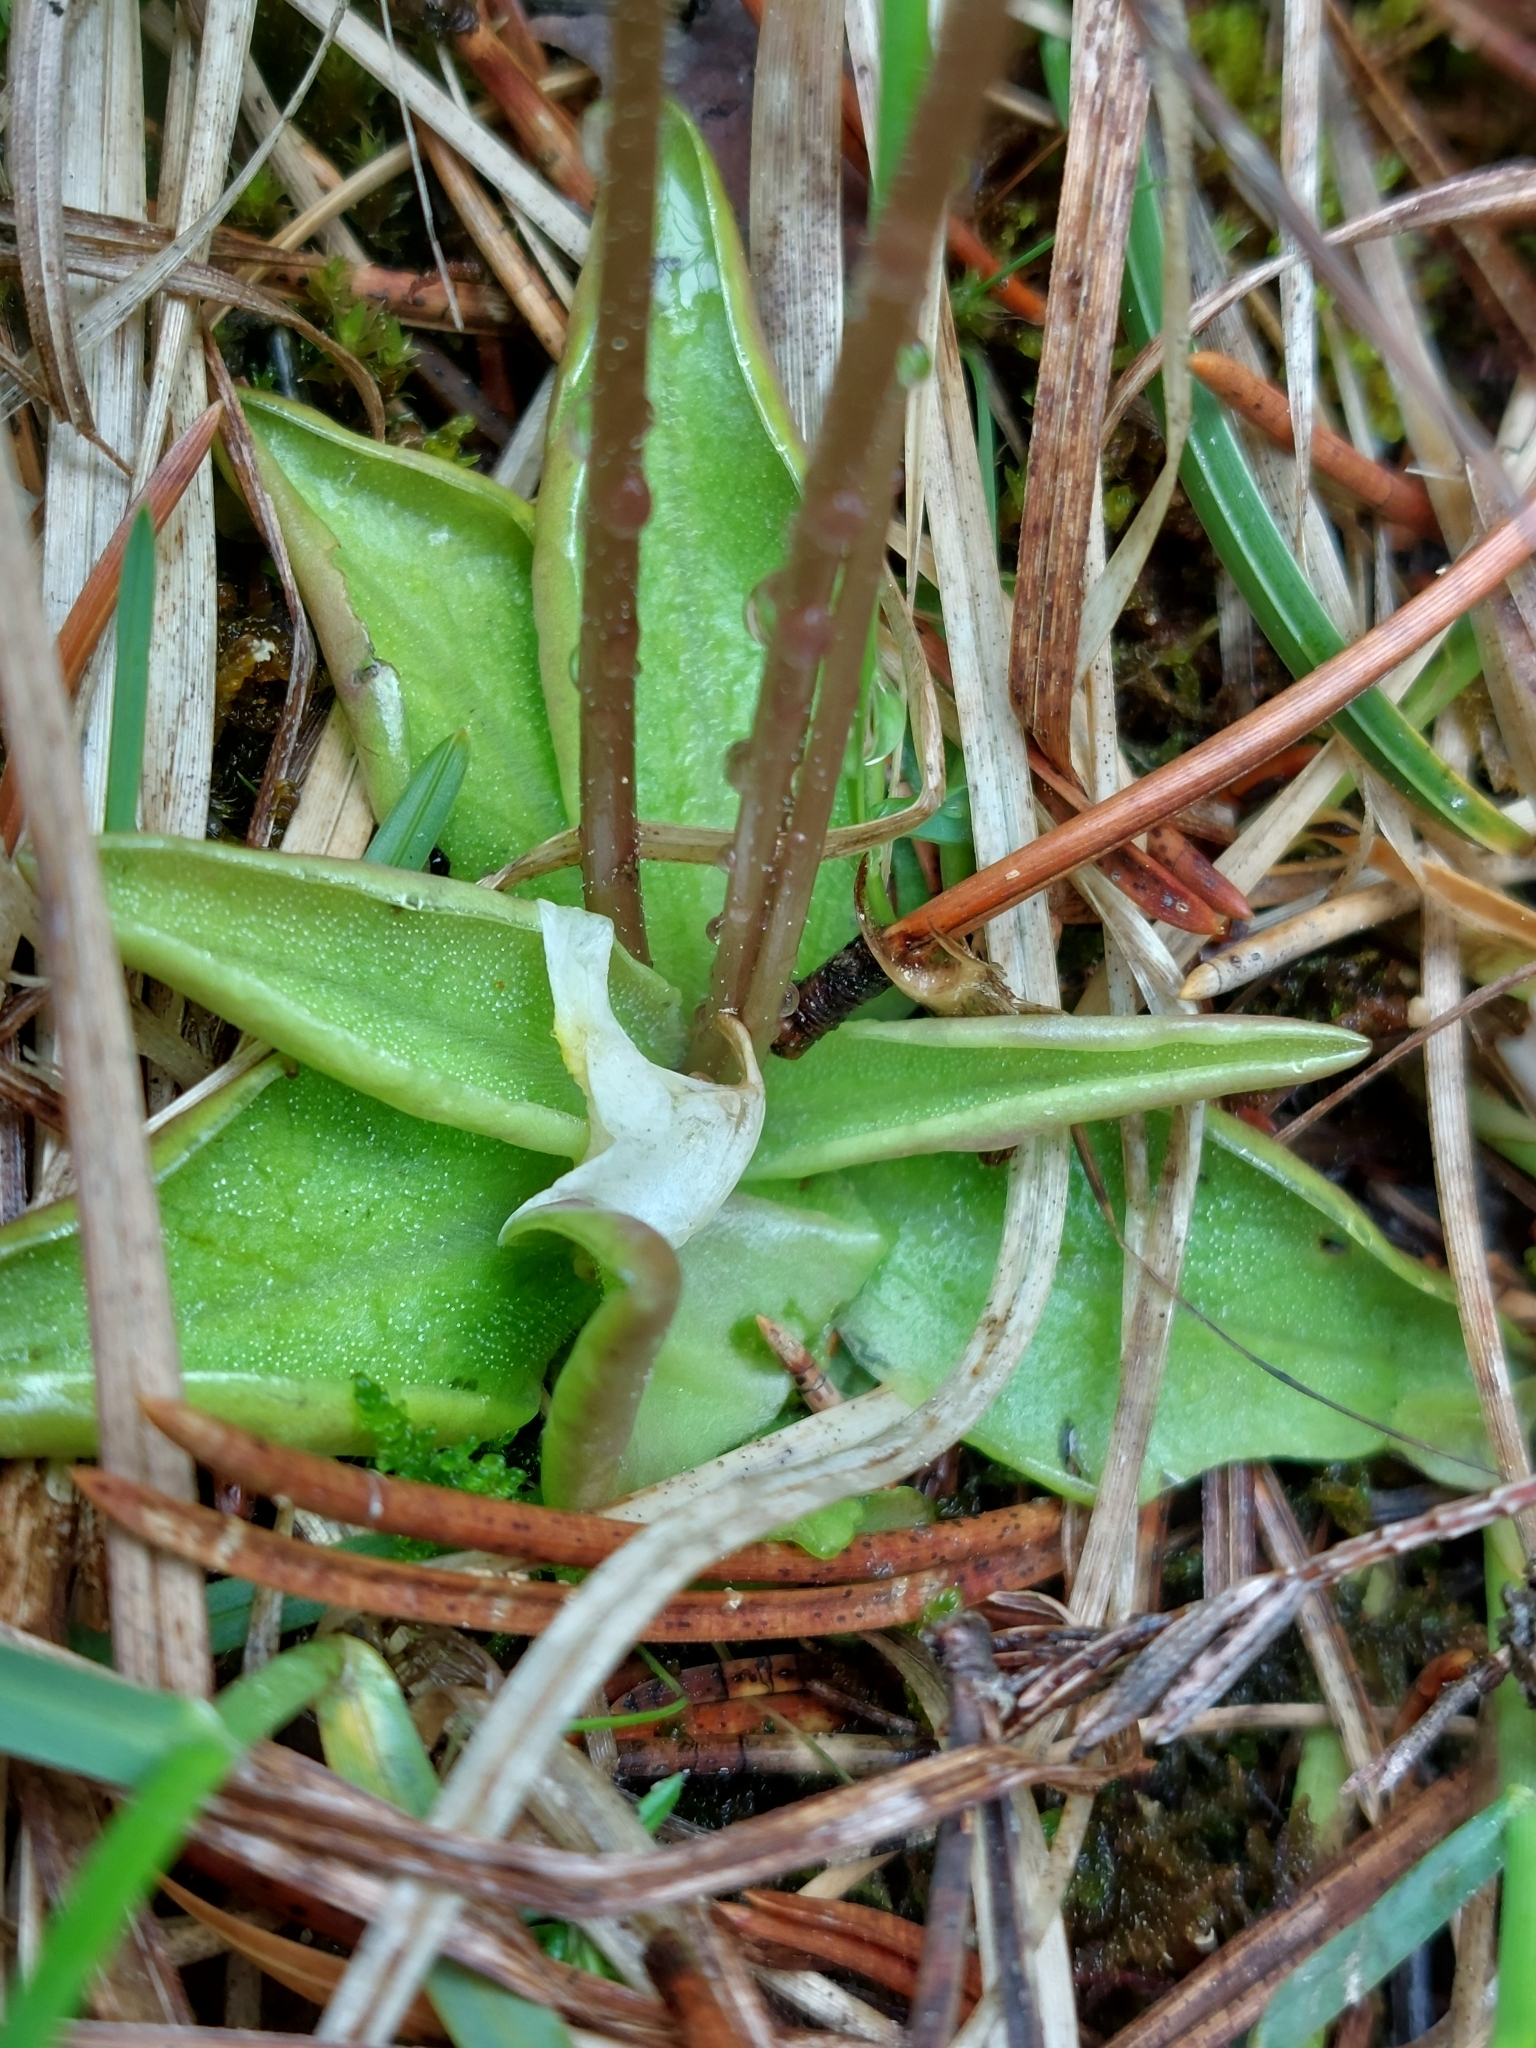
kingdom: Plantae
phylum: Tracheophyta
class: Magnoliopsida
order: Lamiales
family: Lentibulariaceae
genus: Pinguicula
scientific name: Pinguicula alpina
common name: Alpine butterwort
